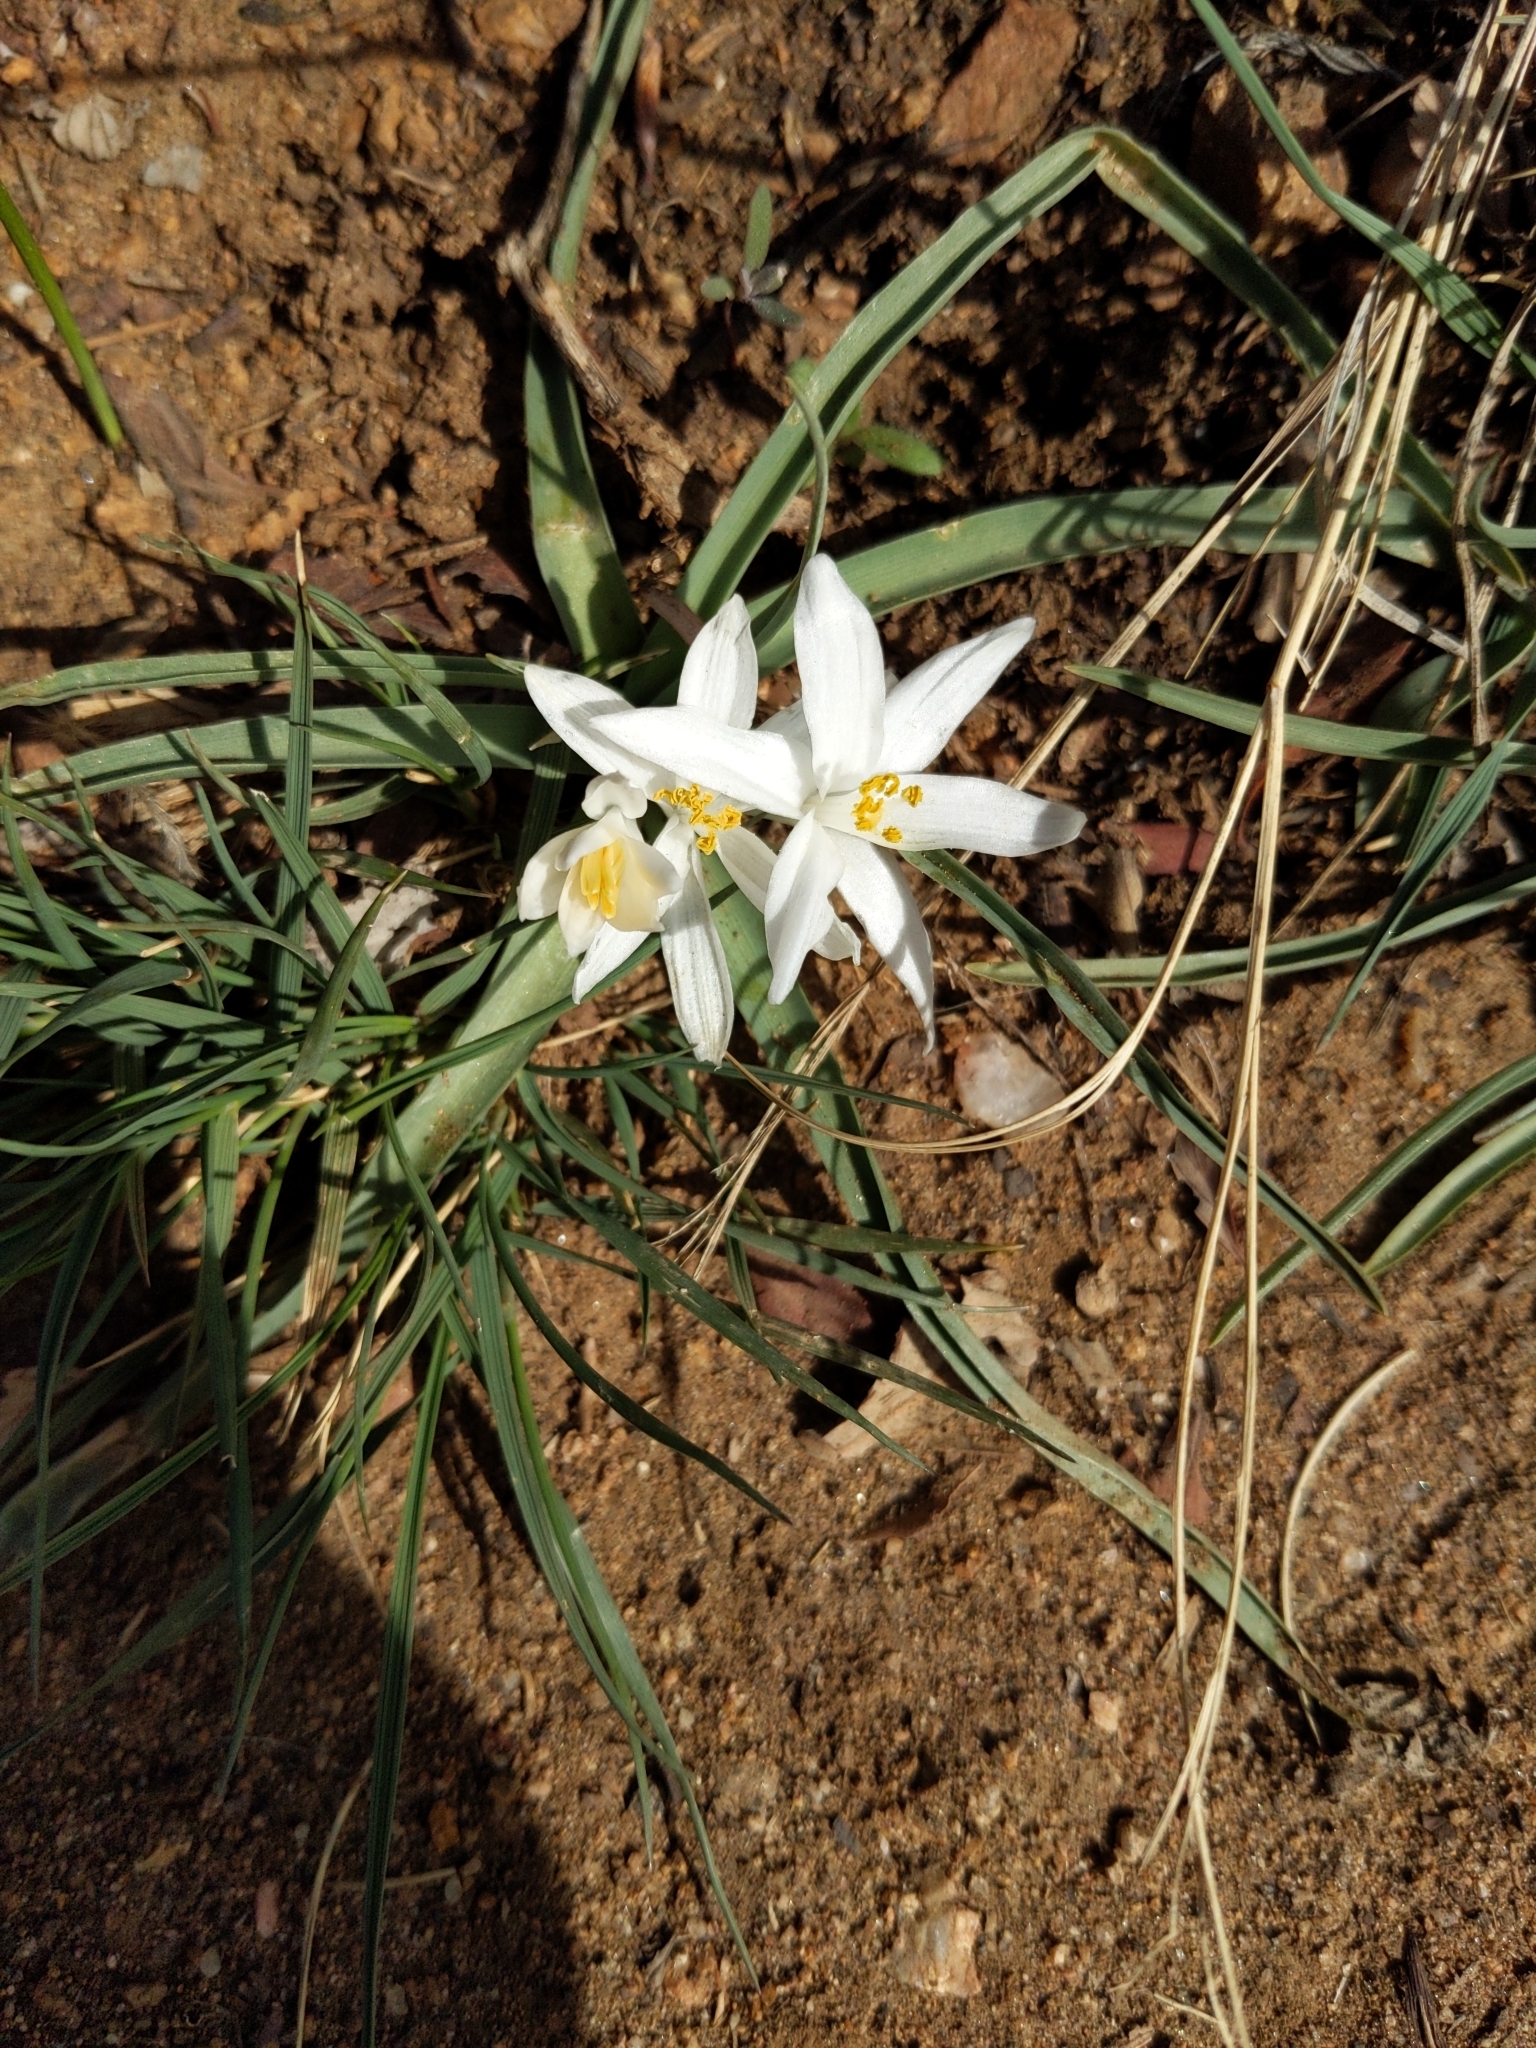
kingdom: Plantae
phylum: Tracheophyta
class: Liliopsida
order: Asparagales
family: Asparagaceae
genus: Leucocrinum
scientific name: Leucocrinum montanum
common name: Mountain-lily
